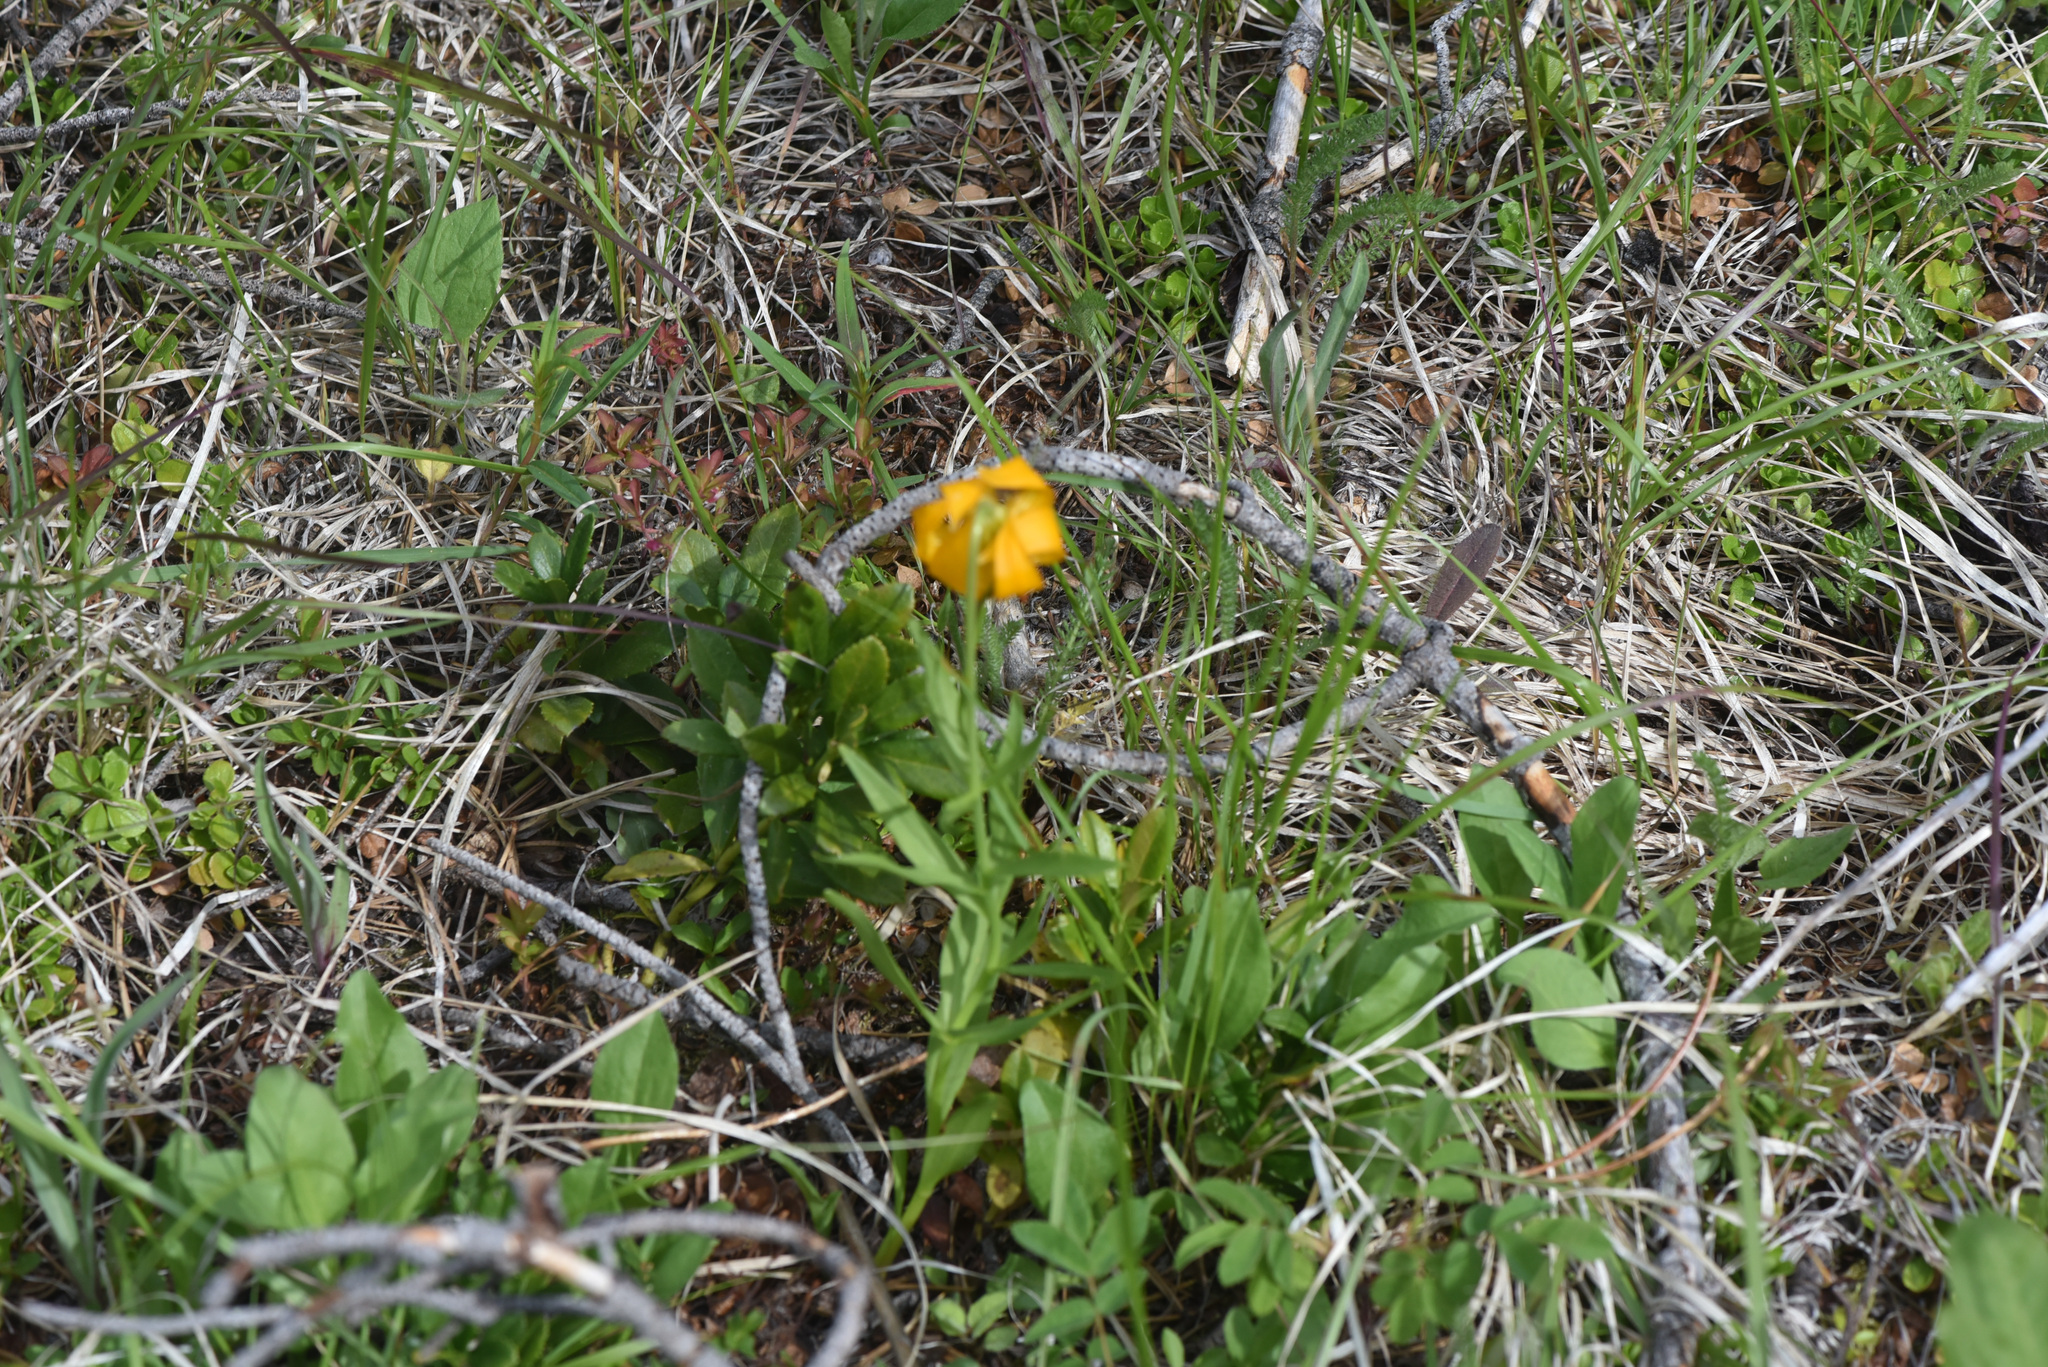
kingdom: Plantae
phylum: Tracheophyta
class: Liliopsida
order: Liliales
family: Liliaceae
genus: Lilium
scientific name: Lilium columbianum
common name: Columbia lily
